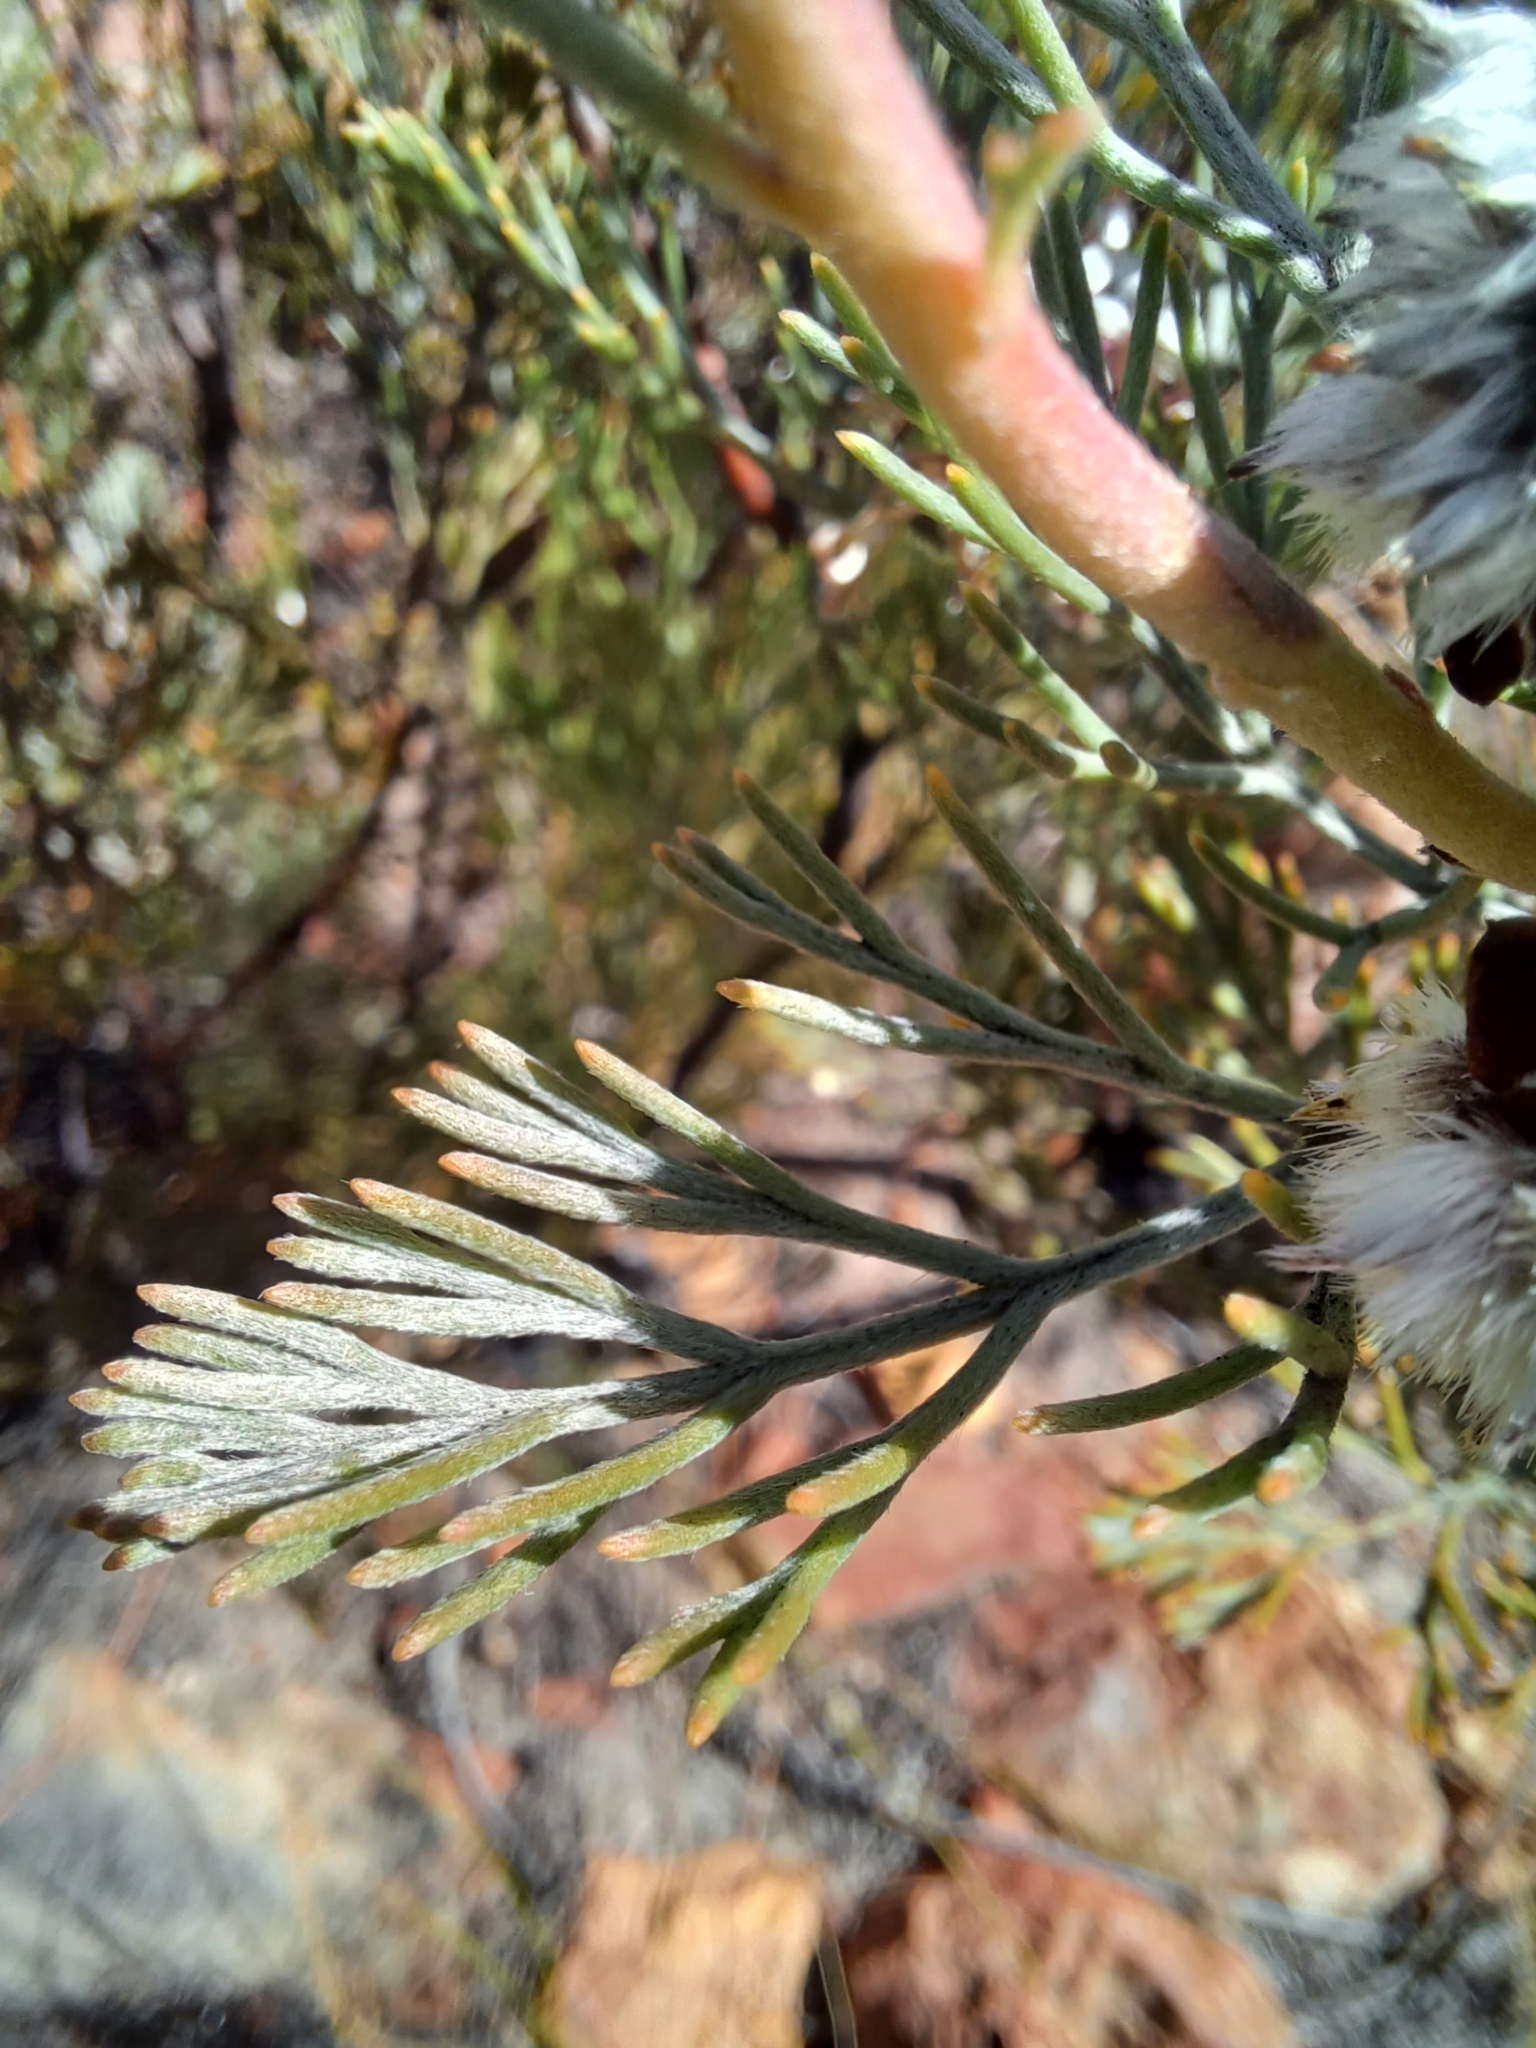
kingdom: Plantae
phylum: Tracheophyta
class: Magnoliopsida
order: Proteales
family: Proteaceae
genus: Serruria
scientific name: Serruria dodii
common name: Hex river spiderhead
